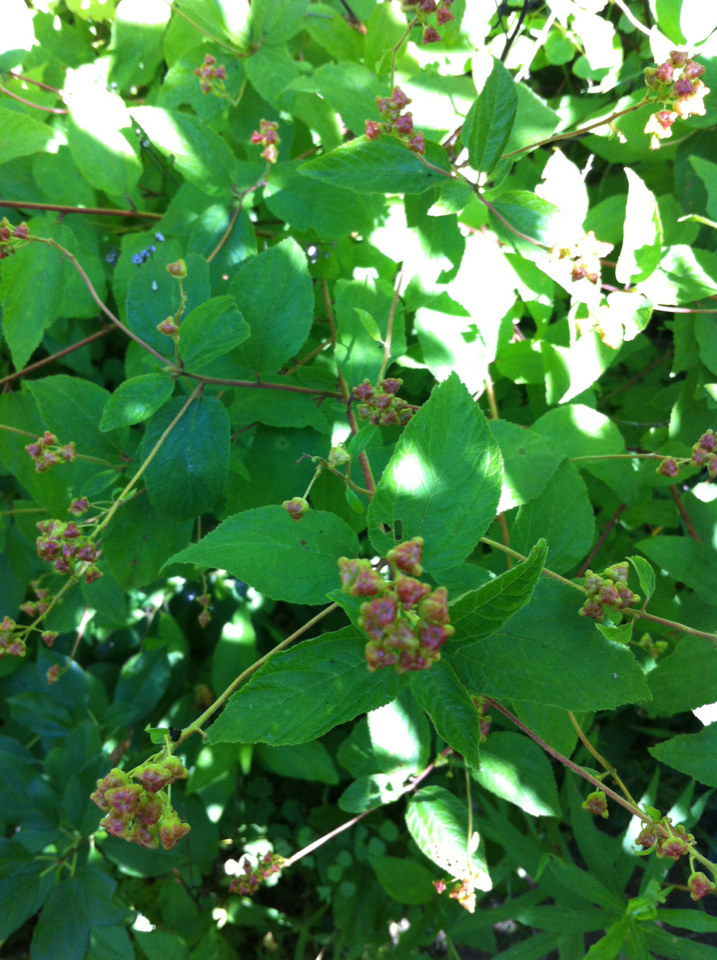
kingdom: Plantae
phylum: Tracheophyta
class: Magnoliopsida
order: Rosales
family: Rhamnaceae
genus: Ceanothus
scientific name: Ceanothus americanus
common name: Redroot
